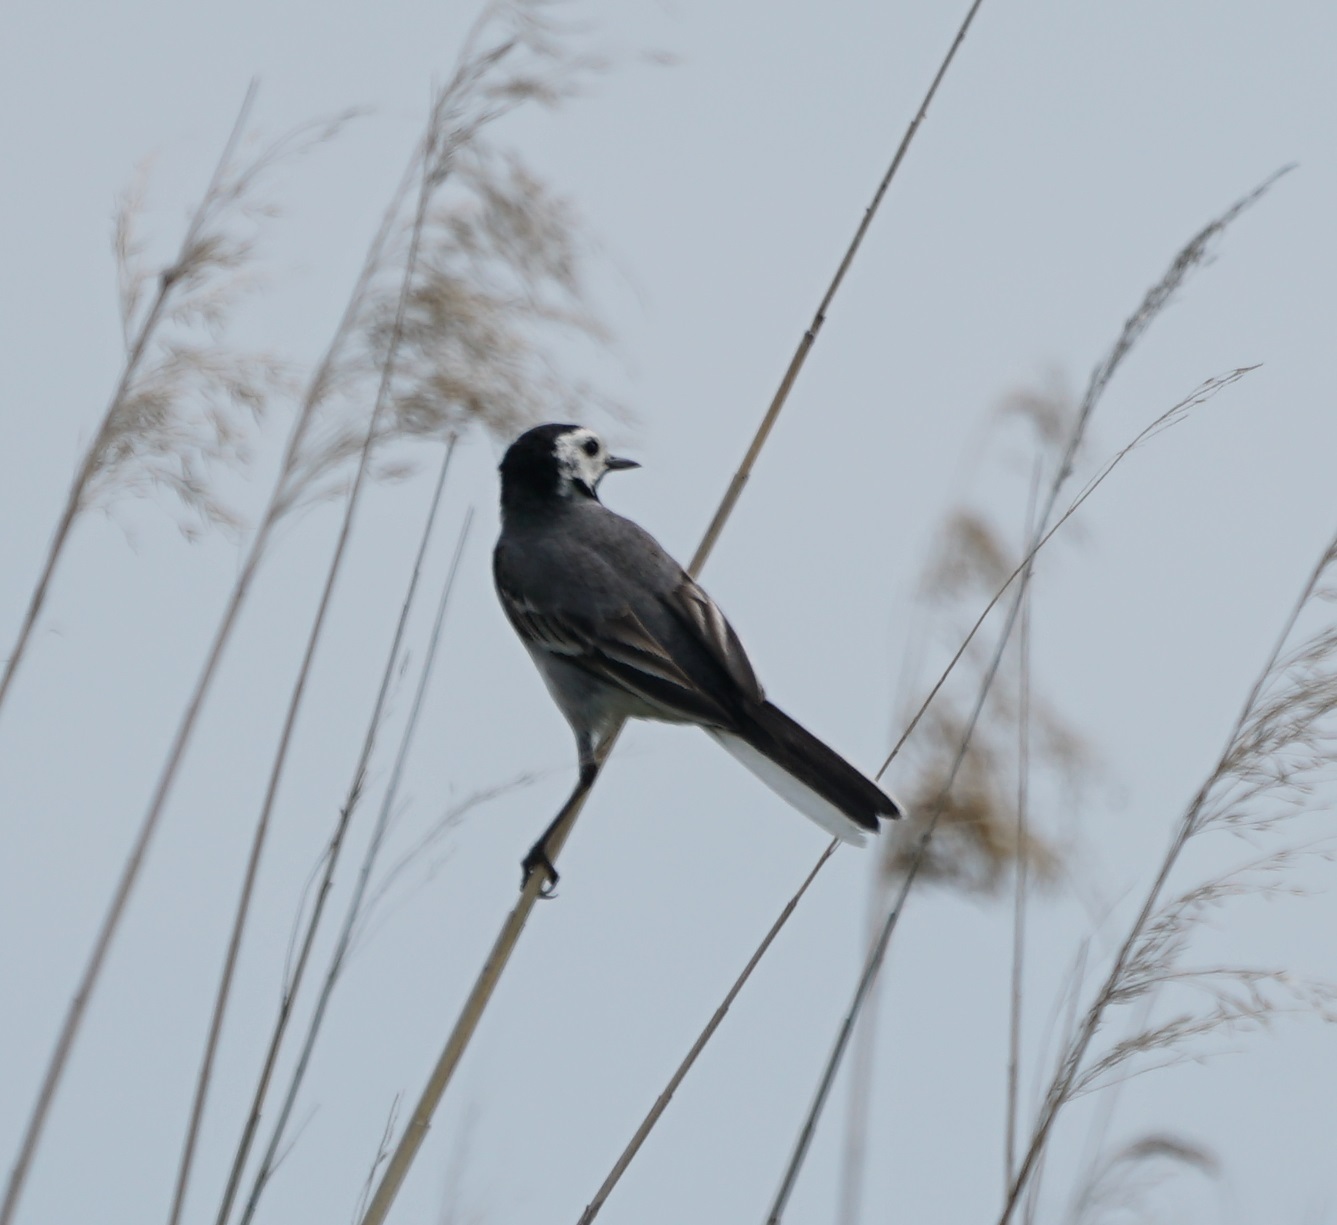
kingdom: Animalia
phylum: Chordata
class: Aves
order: Passeriformes
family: Motacillidae
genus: Motacilla
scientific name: Motacilla alba
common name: White wagtail
